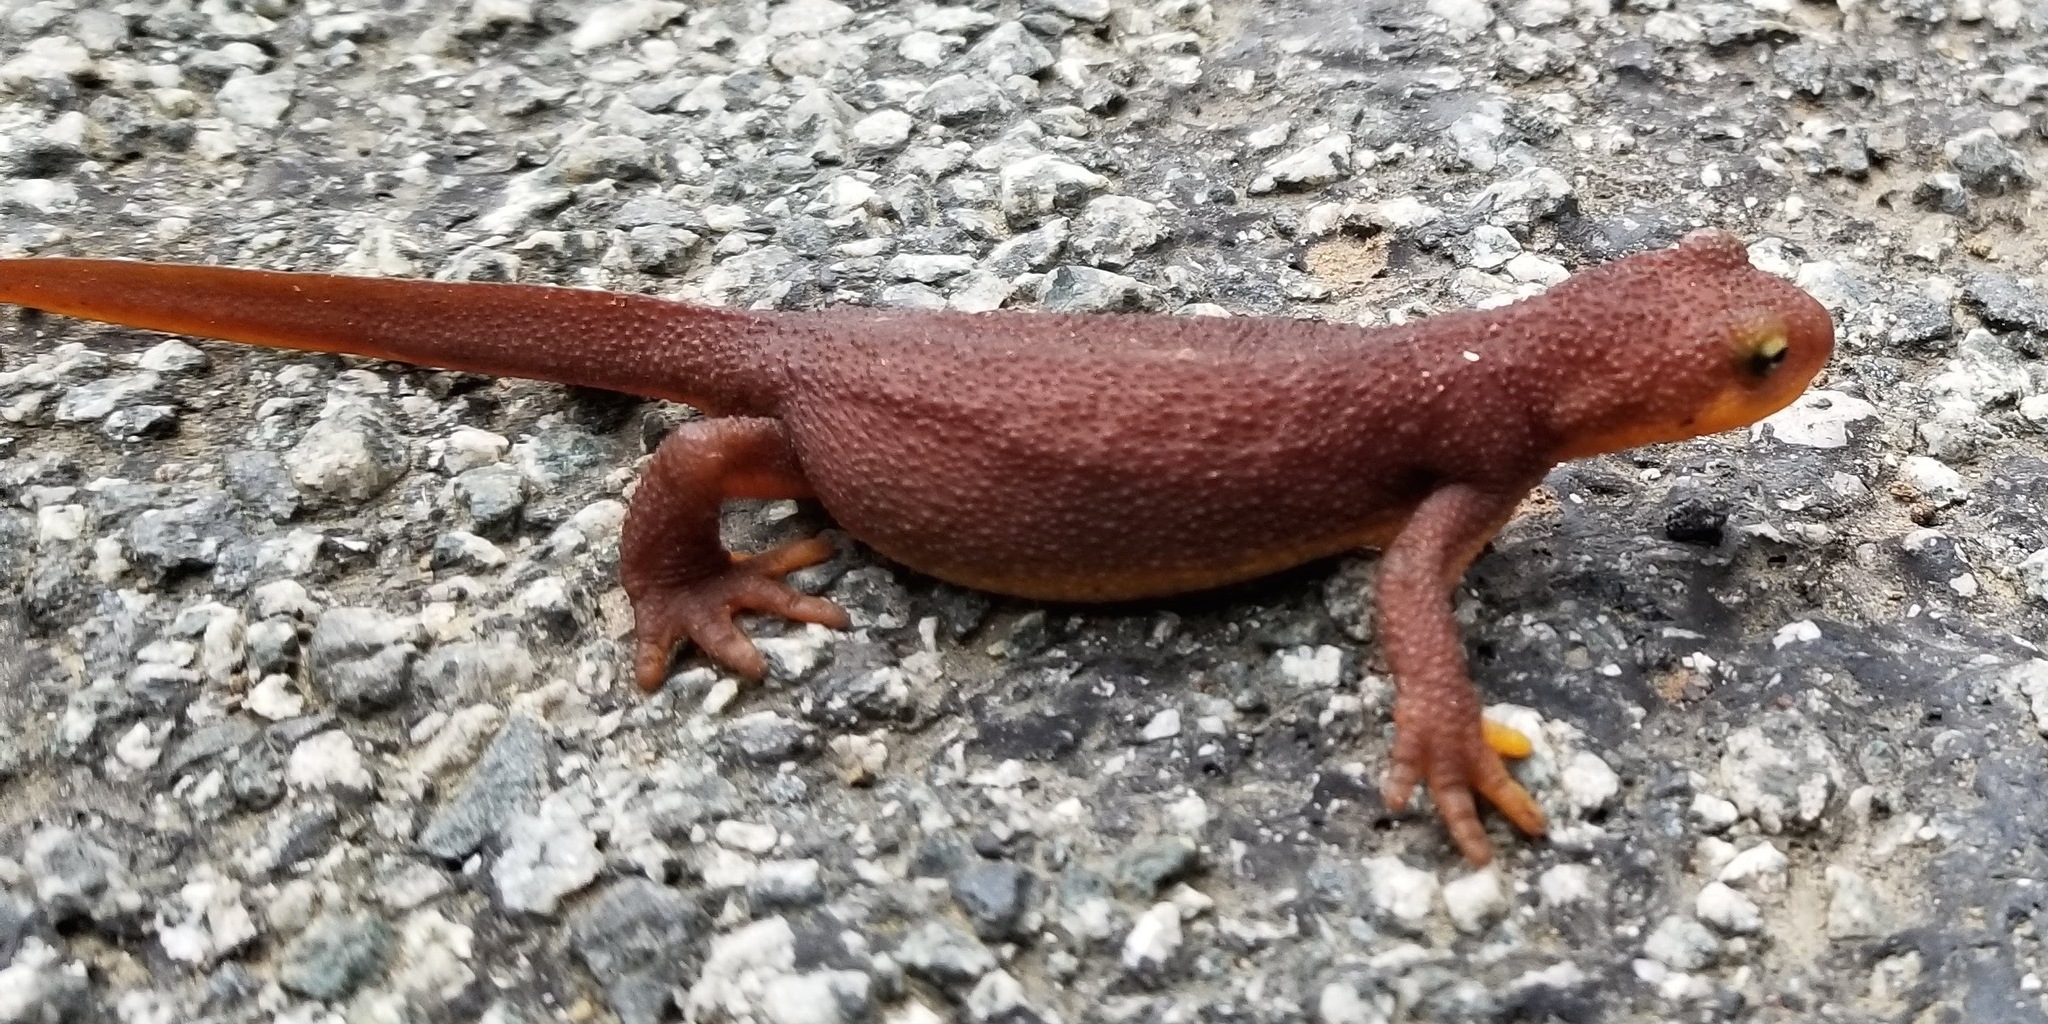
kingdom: Animalia
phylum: Chordata
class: Amphibia
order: Caudata
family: Salamandridae
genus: Taricha
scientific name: Taricha torosa
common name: California newt
